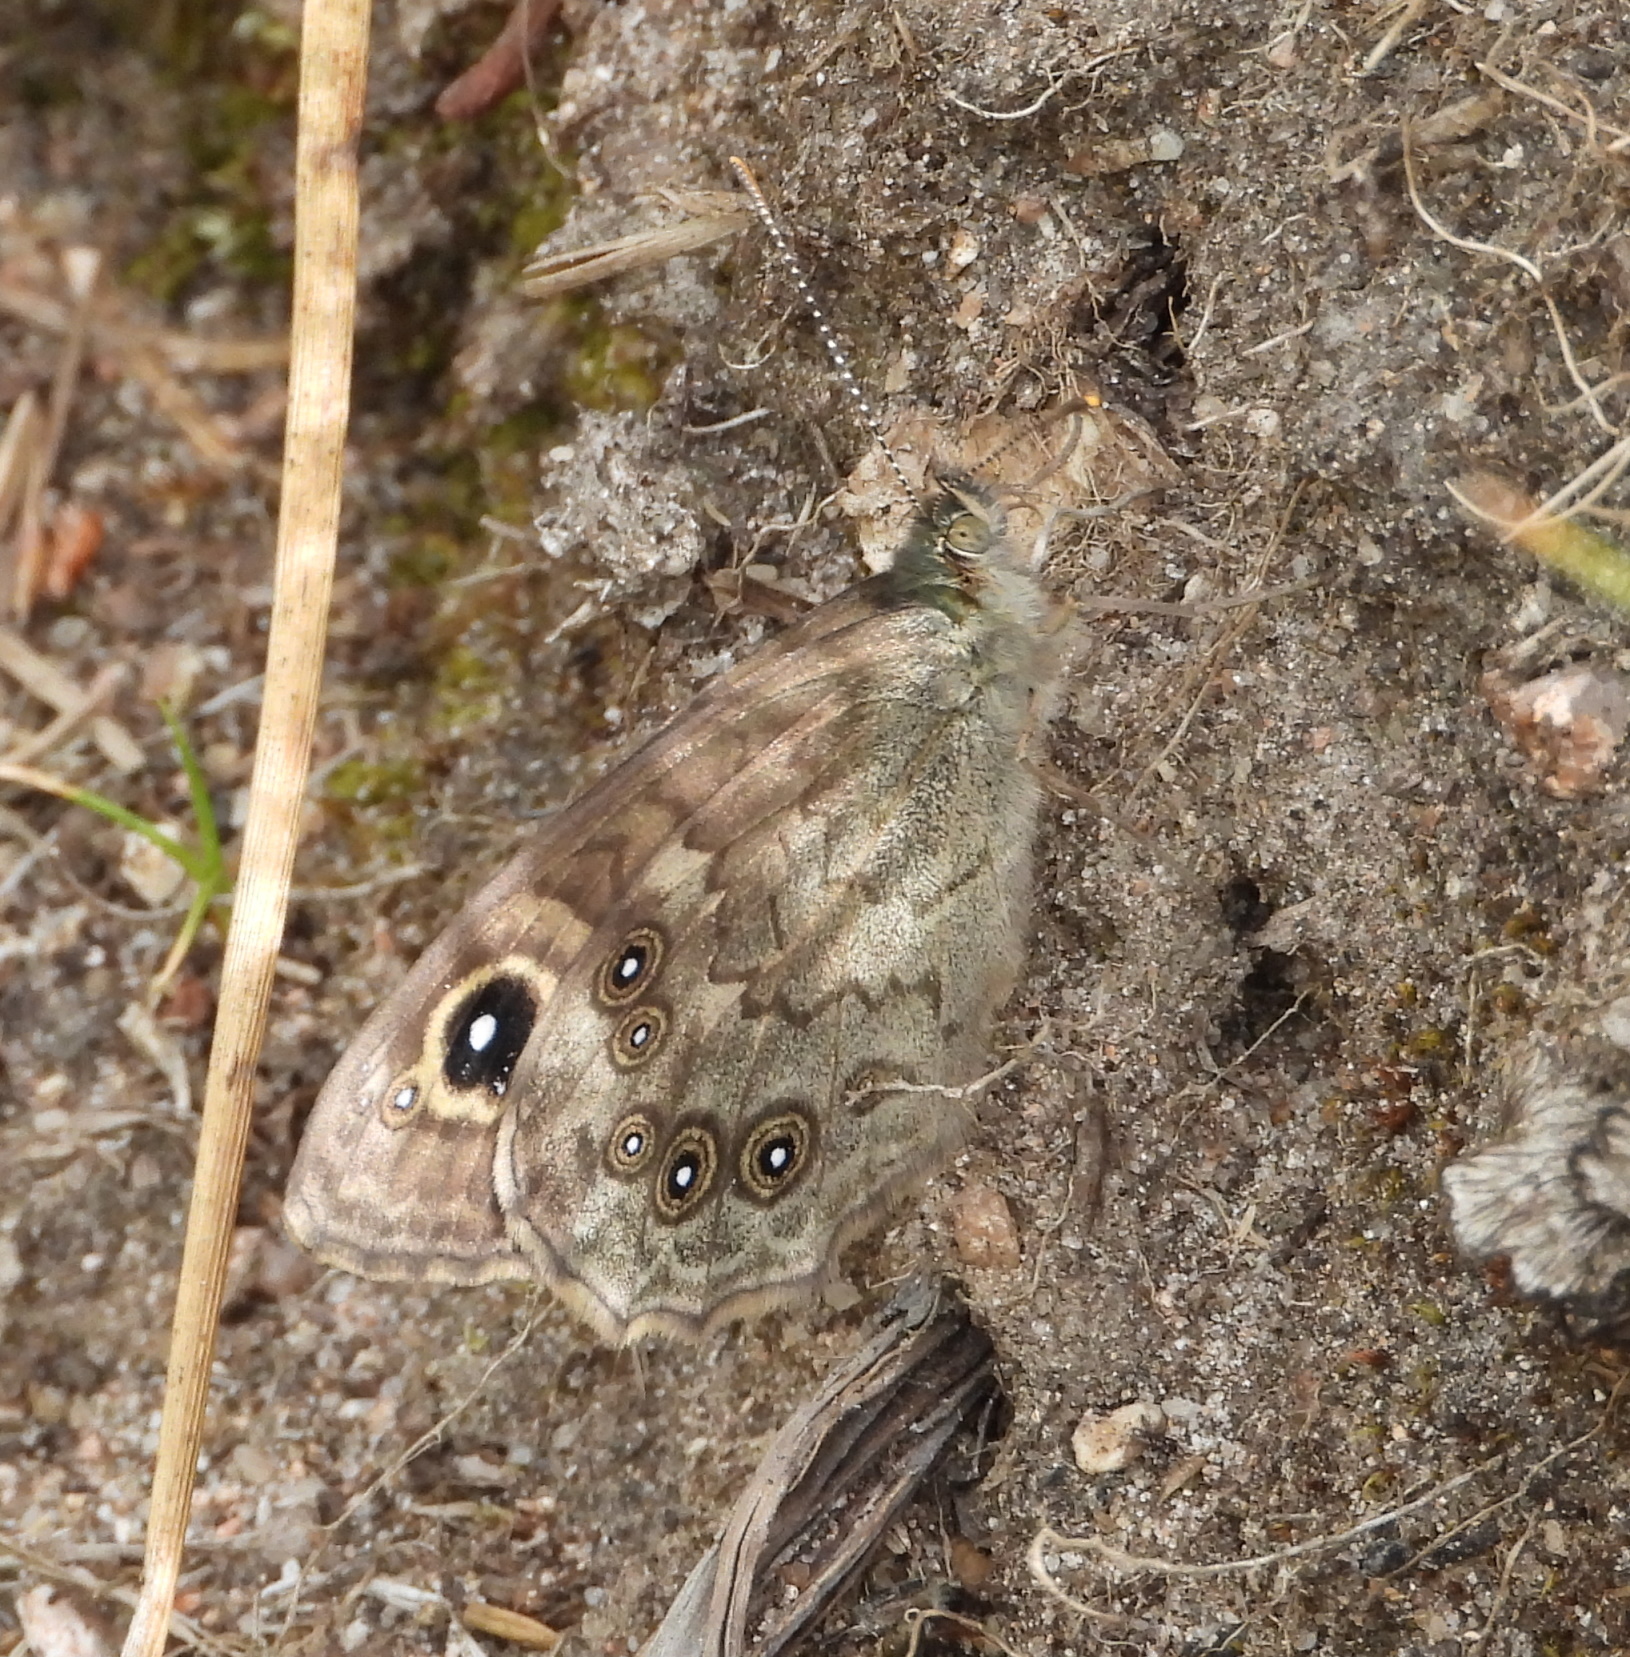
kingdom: Animalia
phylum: Arthropoda
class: Insecta
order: Lepidoptera
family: Nymphalidae
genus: Pararge
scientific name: Pararge Lasiommata maera
